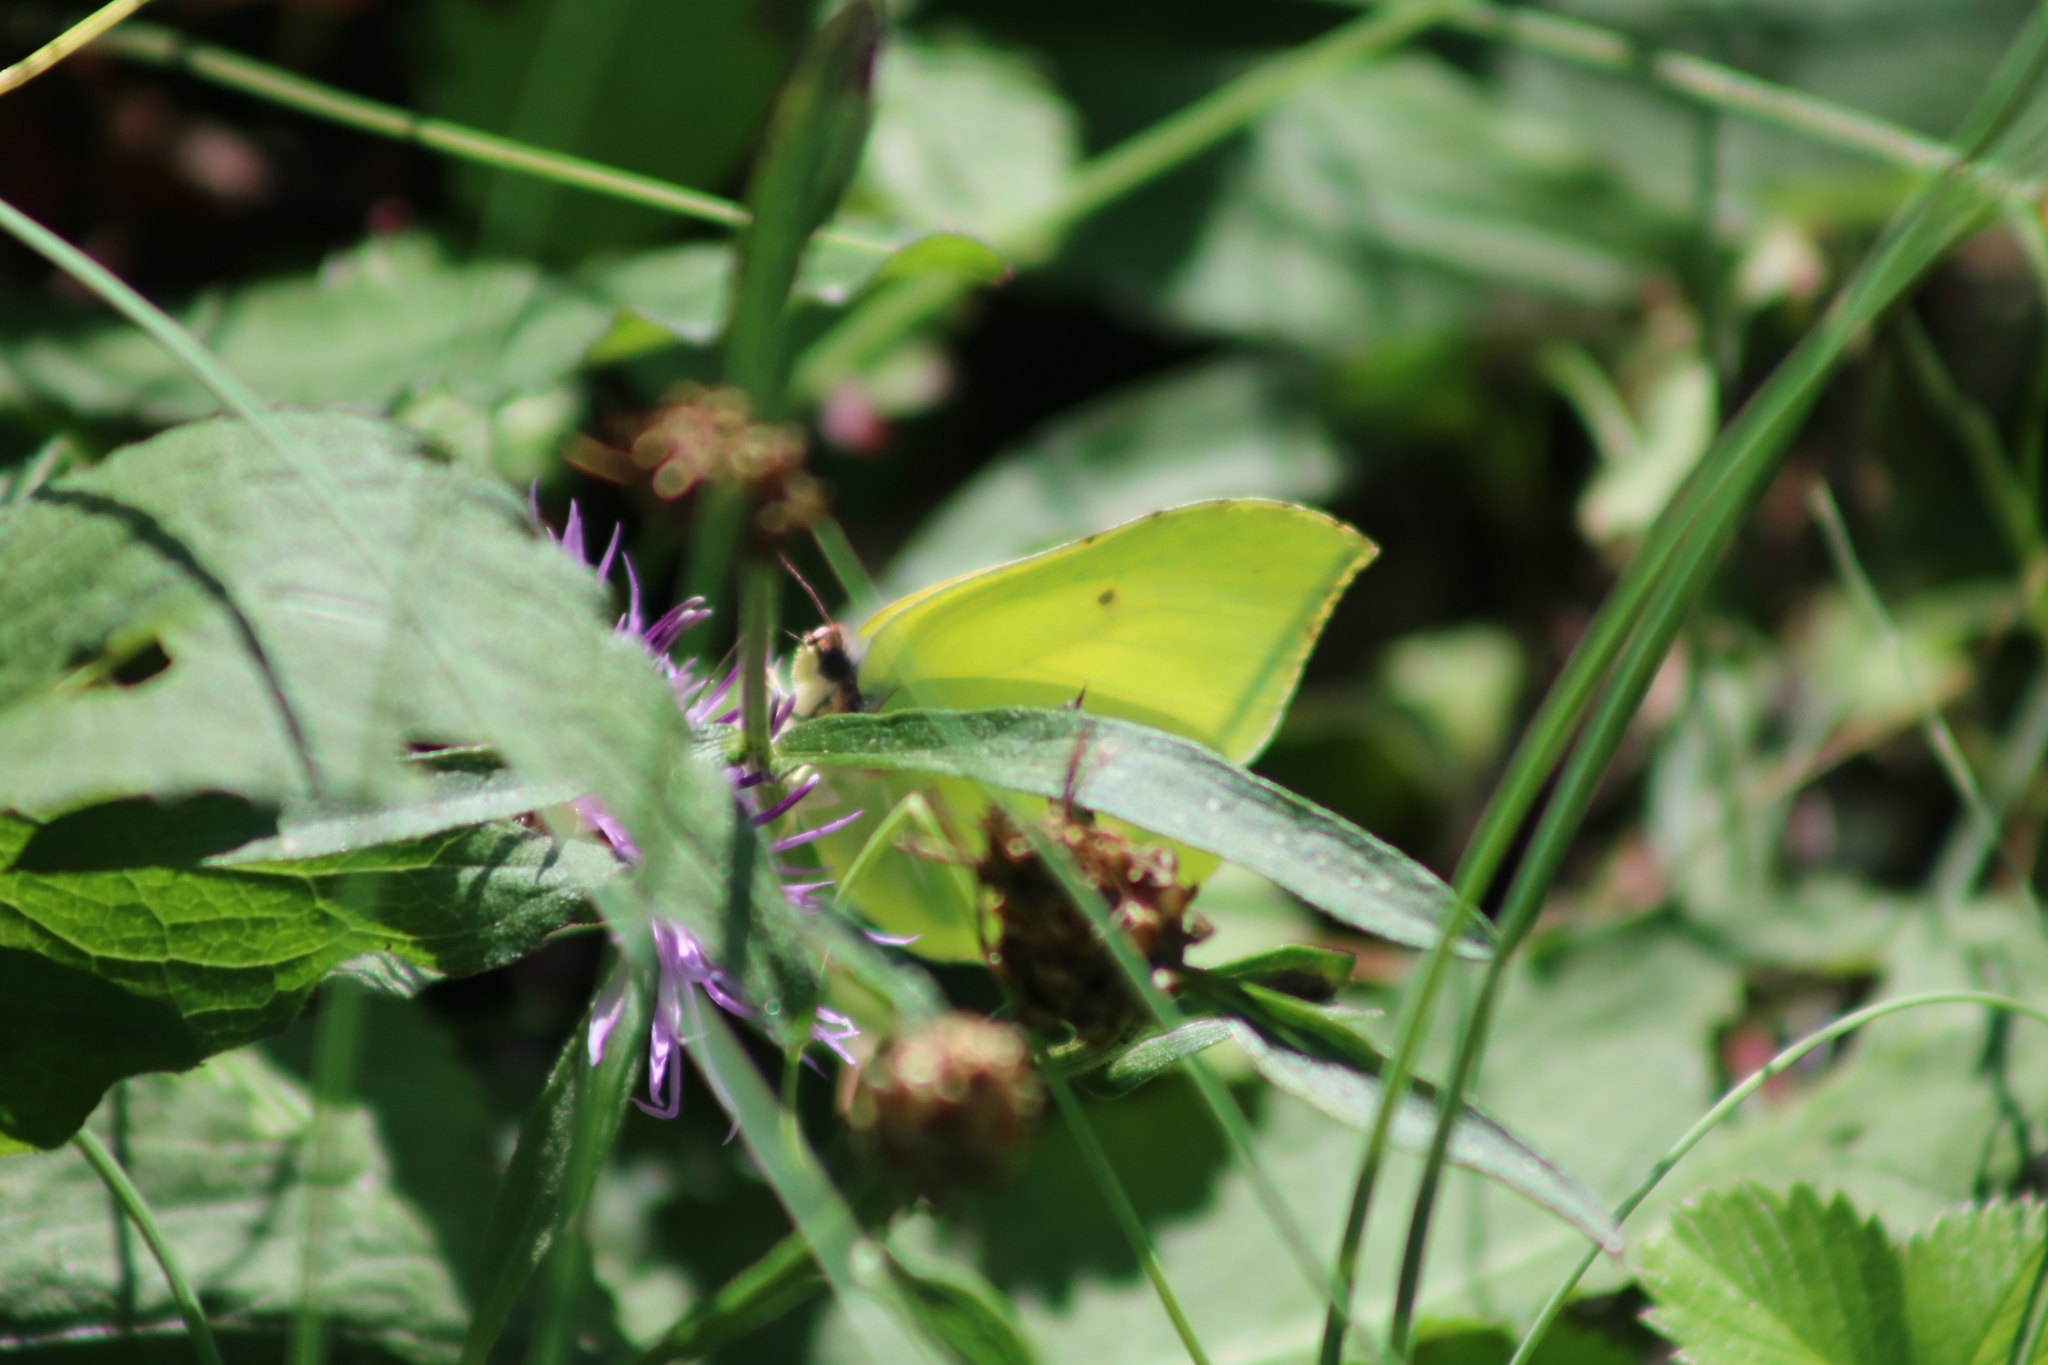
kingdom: Animalia
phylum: Arthropoda
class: Insecta
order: Lepidoptera
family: Pieridae
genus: Gonepteryx
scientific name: Gonepteryx rhamni
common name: Brimstone
